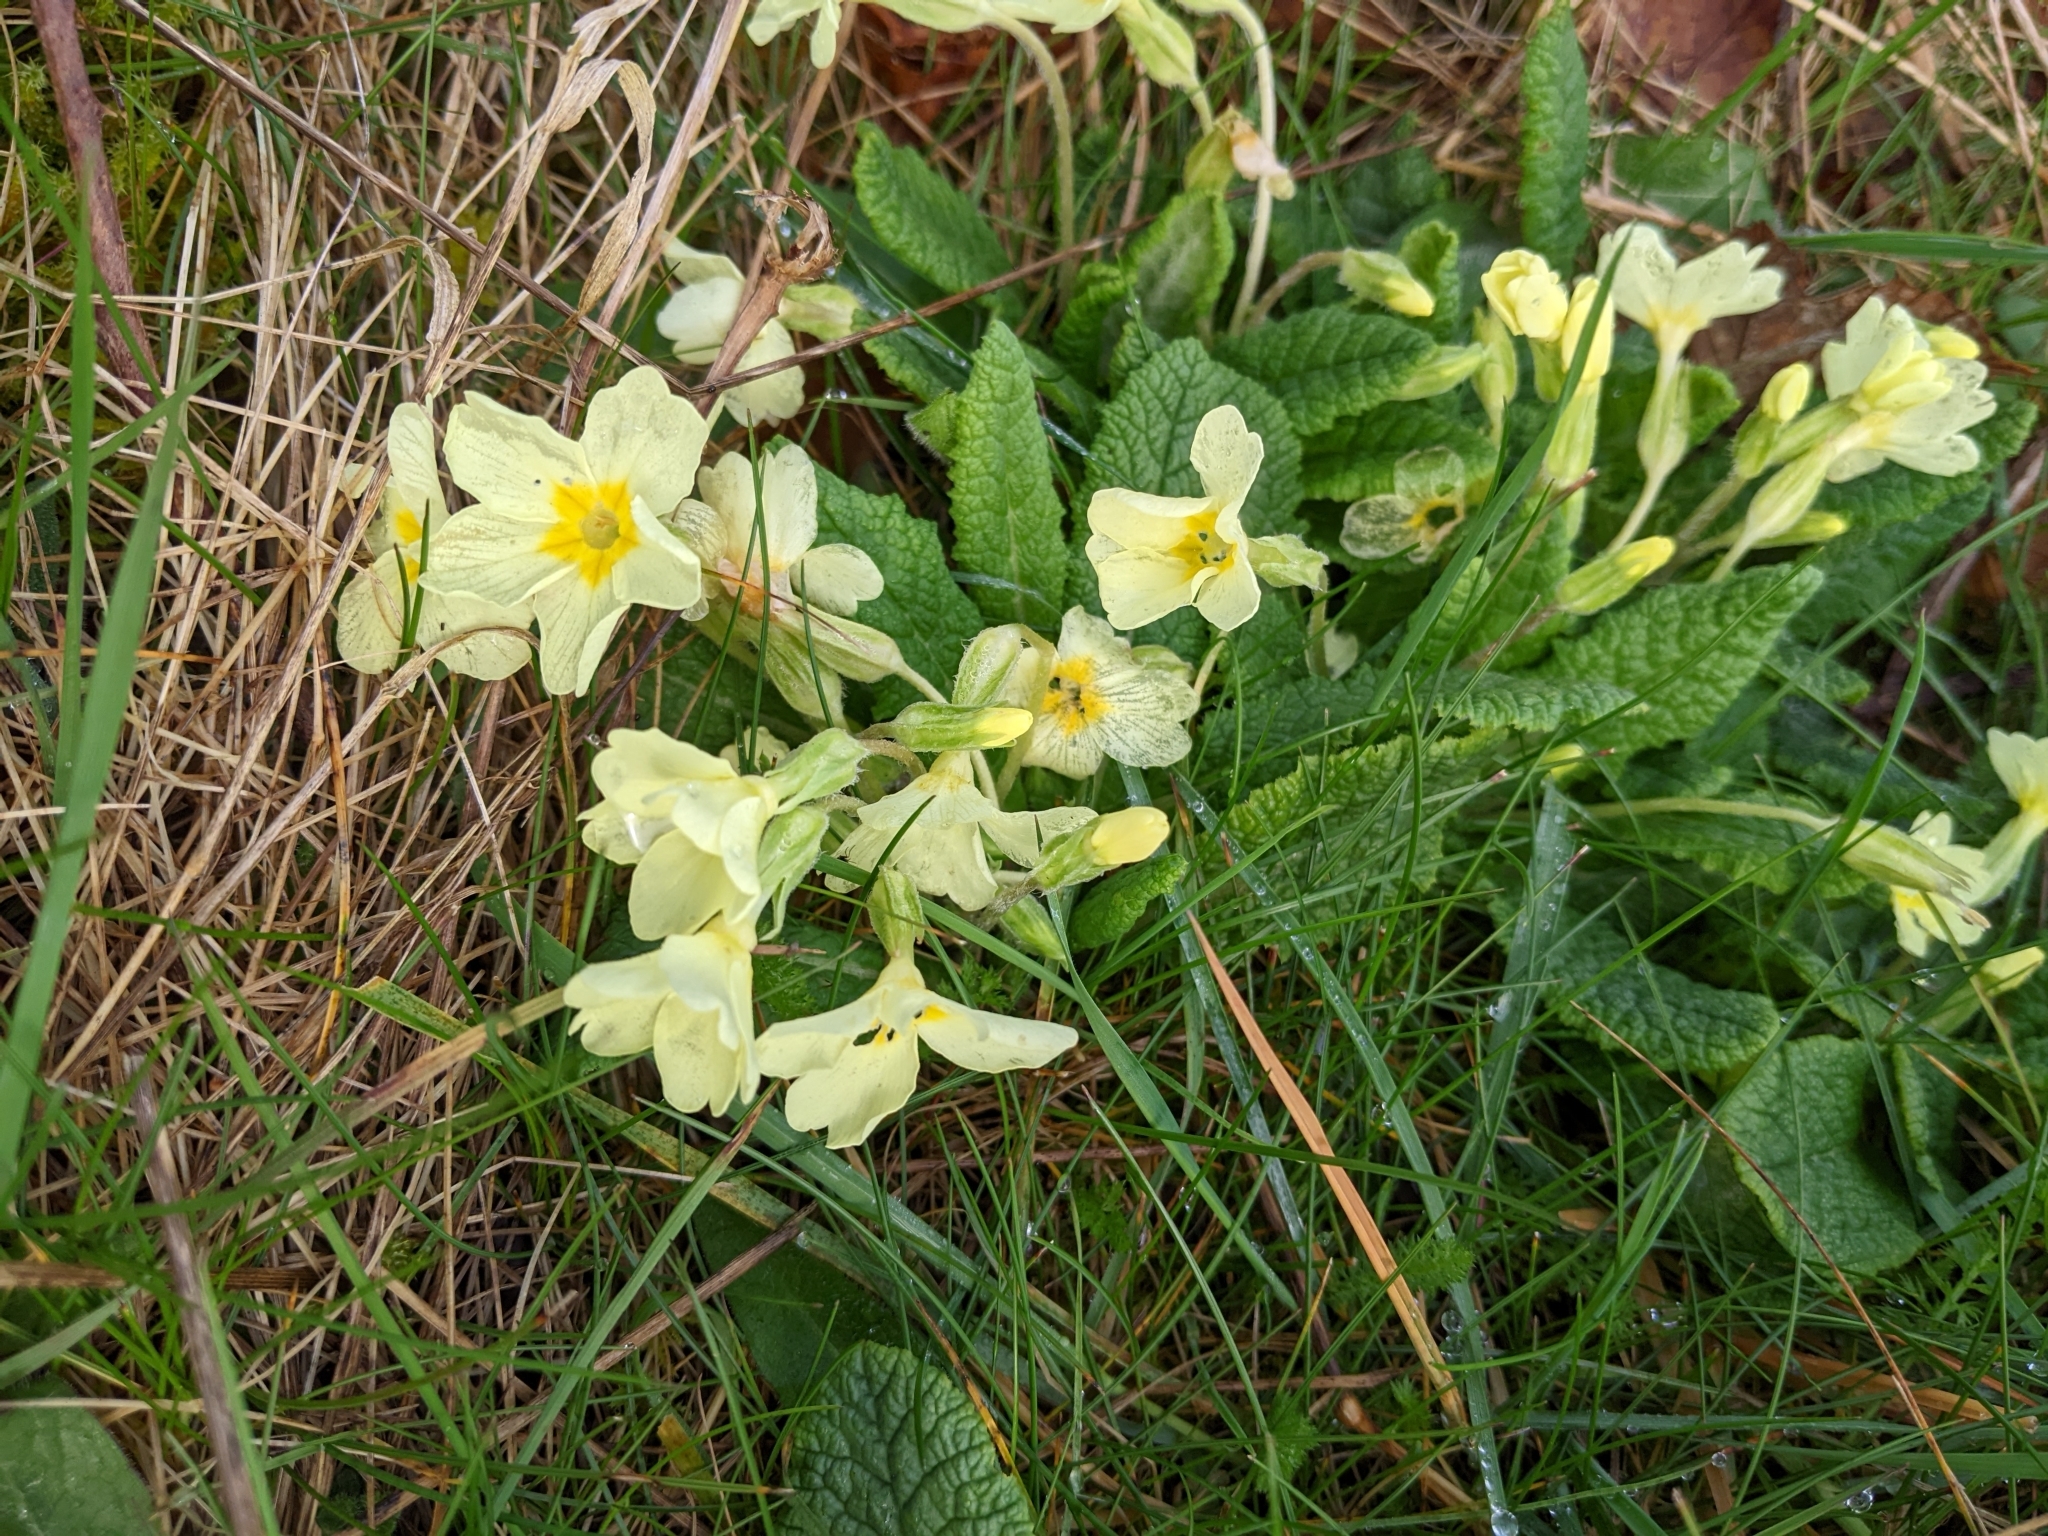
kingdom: Plantae
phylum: Tracheophyta
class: Magnoliopsida
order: Ericales
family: Primulaceae
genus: Primula
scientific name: Primula vulgaris
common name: Primrose
